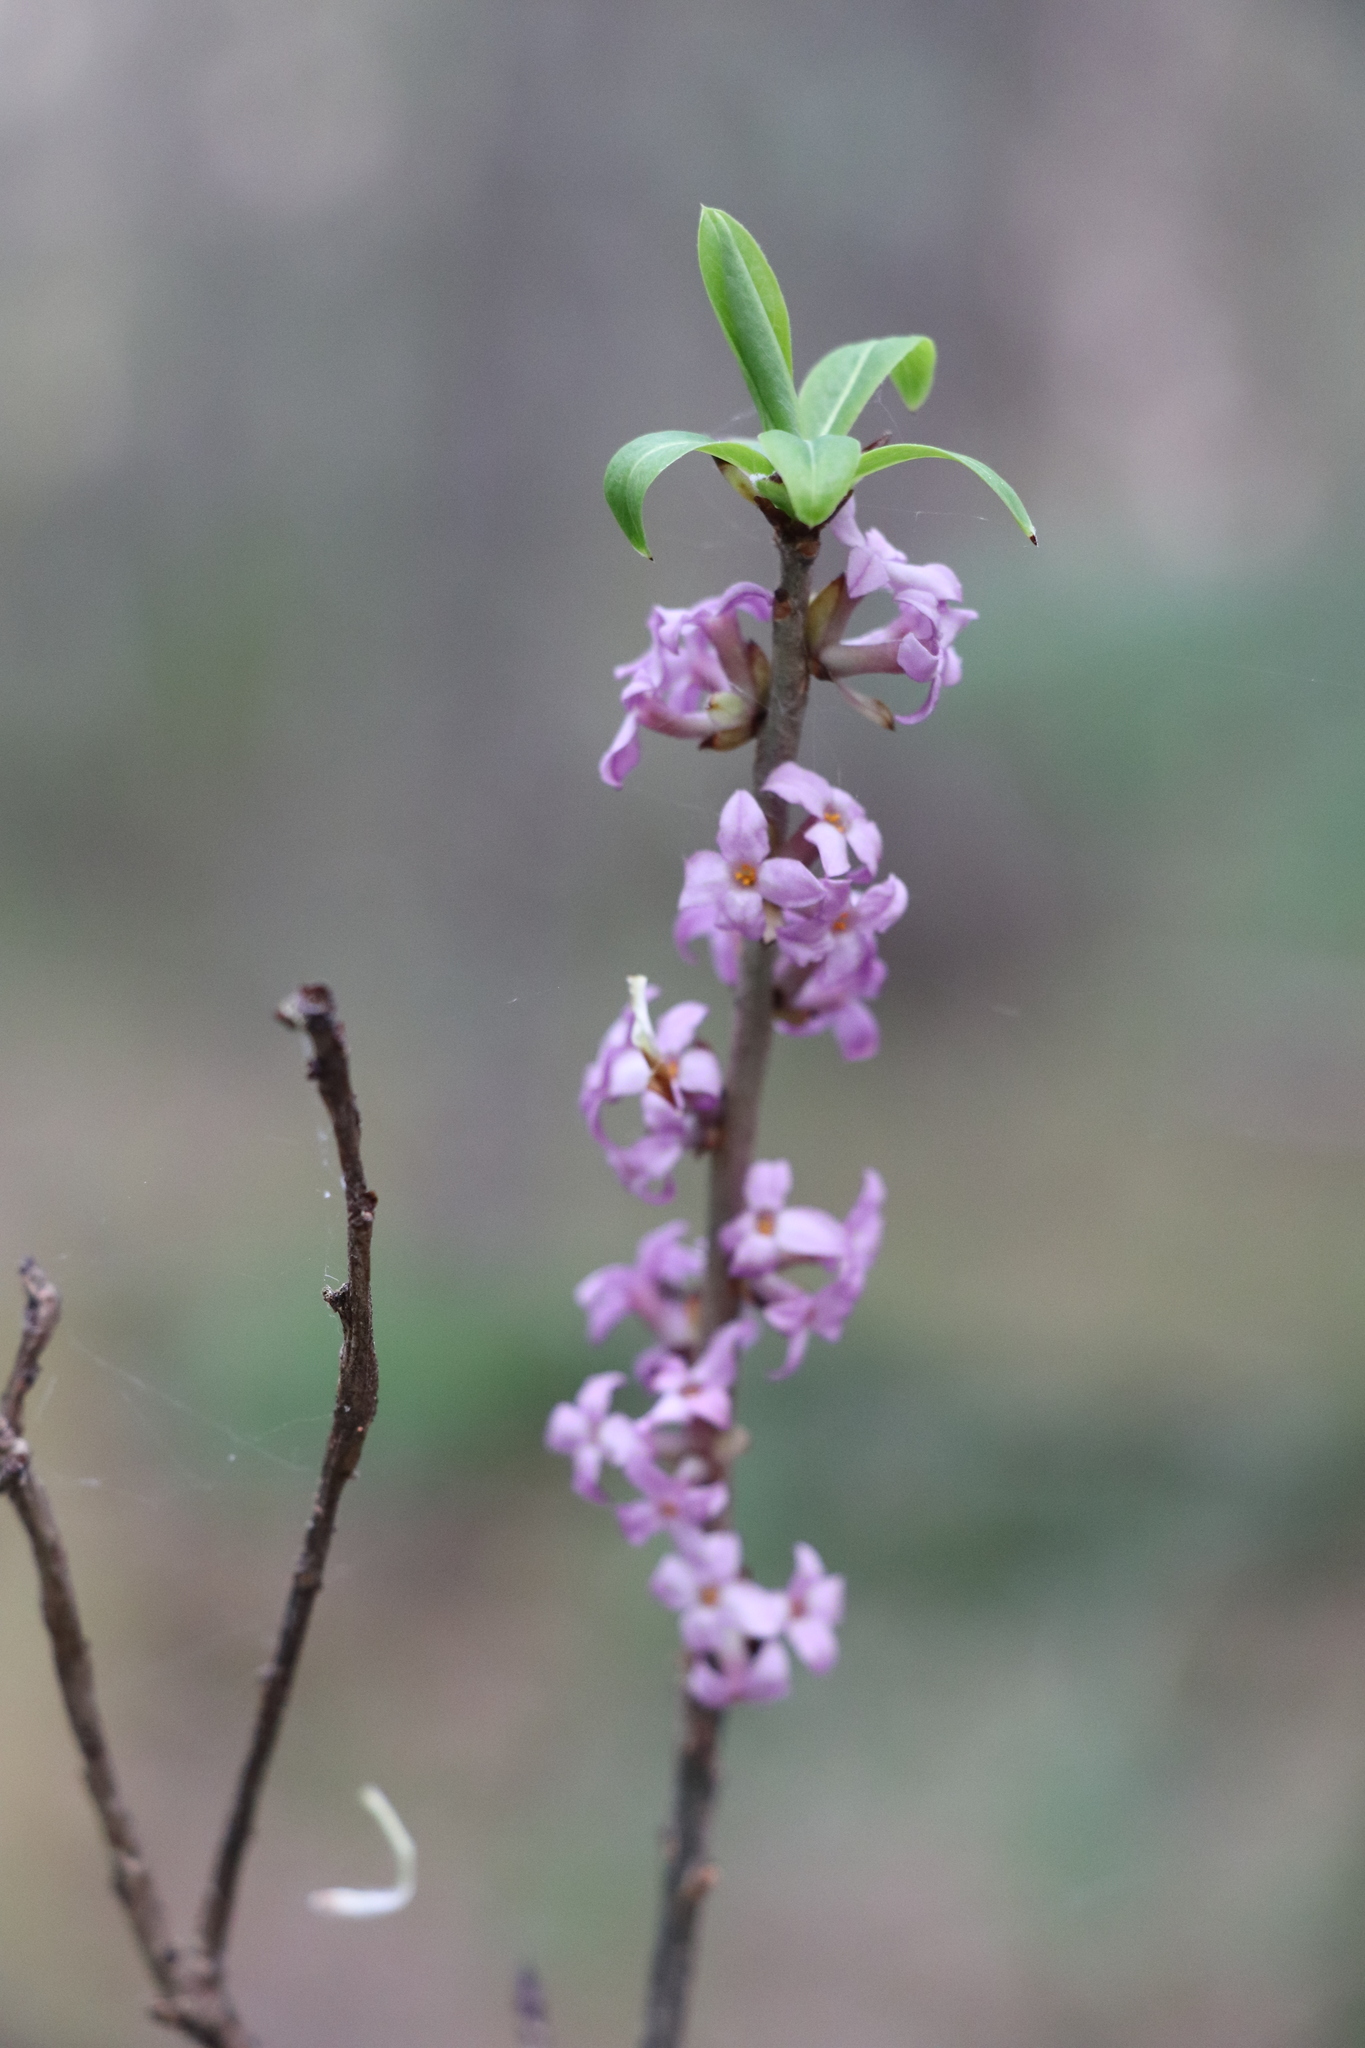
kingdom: Plantae
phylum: Tracheophyta
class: Magnoliopsida
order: Malvales
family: Thymelaeaceae
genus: Daphne
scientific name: Daphne mezereum
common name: Mezereon
